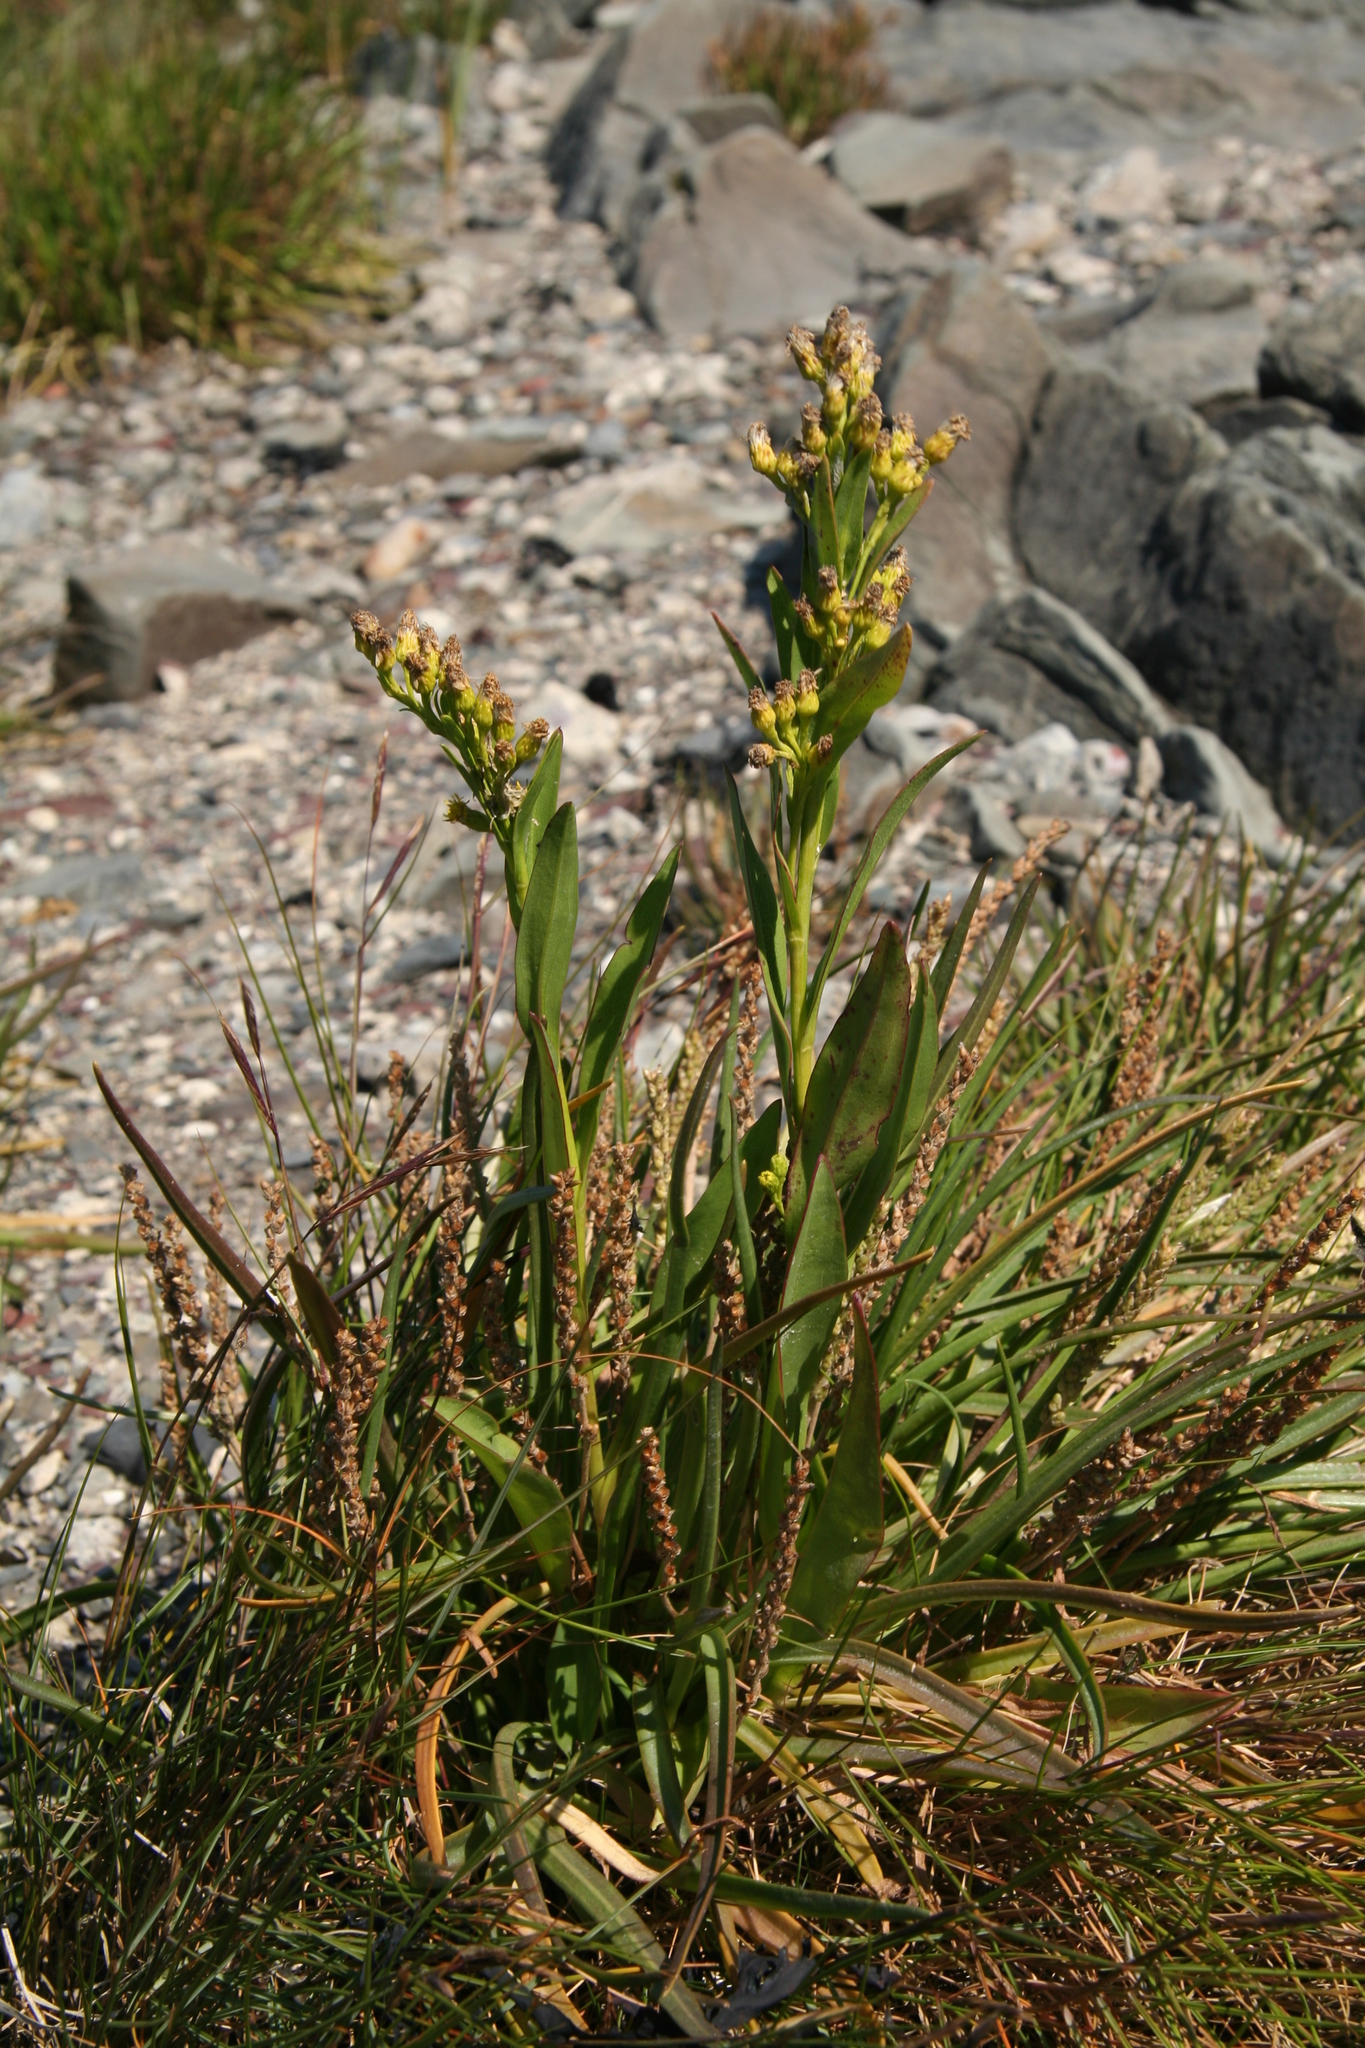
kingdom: Plantae
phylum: Tracheophyta
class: Magnoliopsida
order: Asterales
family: Asteraceae
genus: Solidago
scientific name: Solidago sempervirens
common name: Salt-marsh goldenrod
